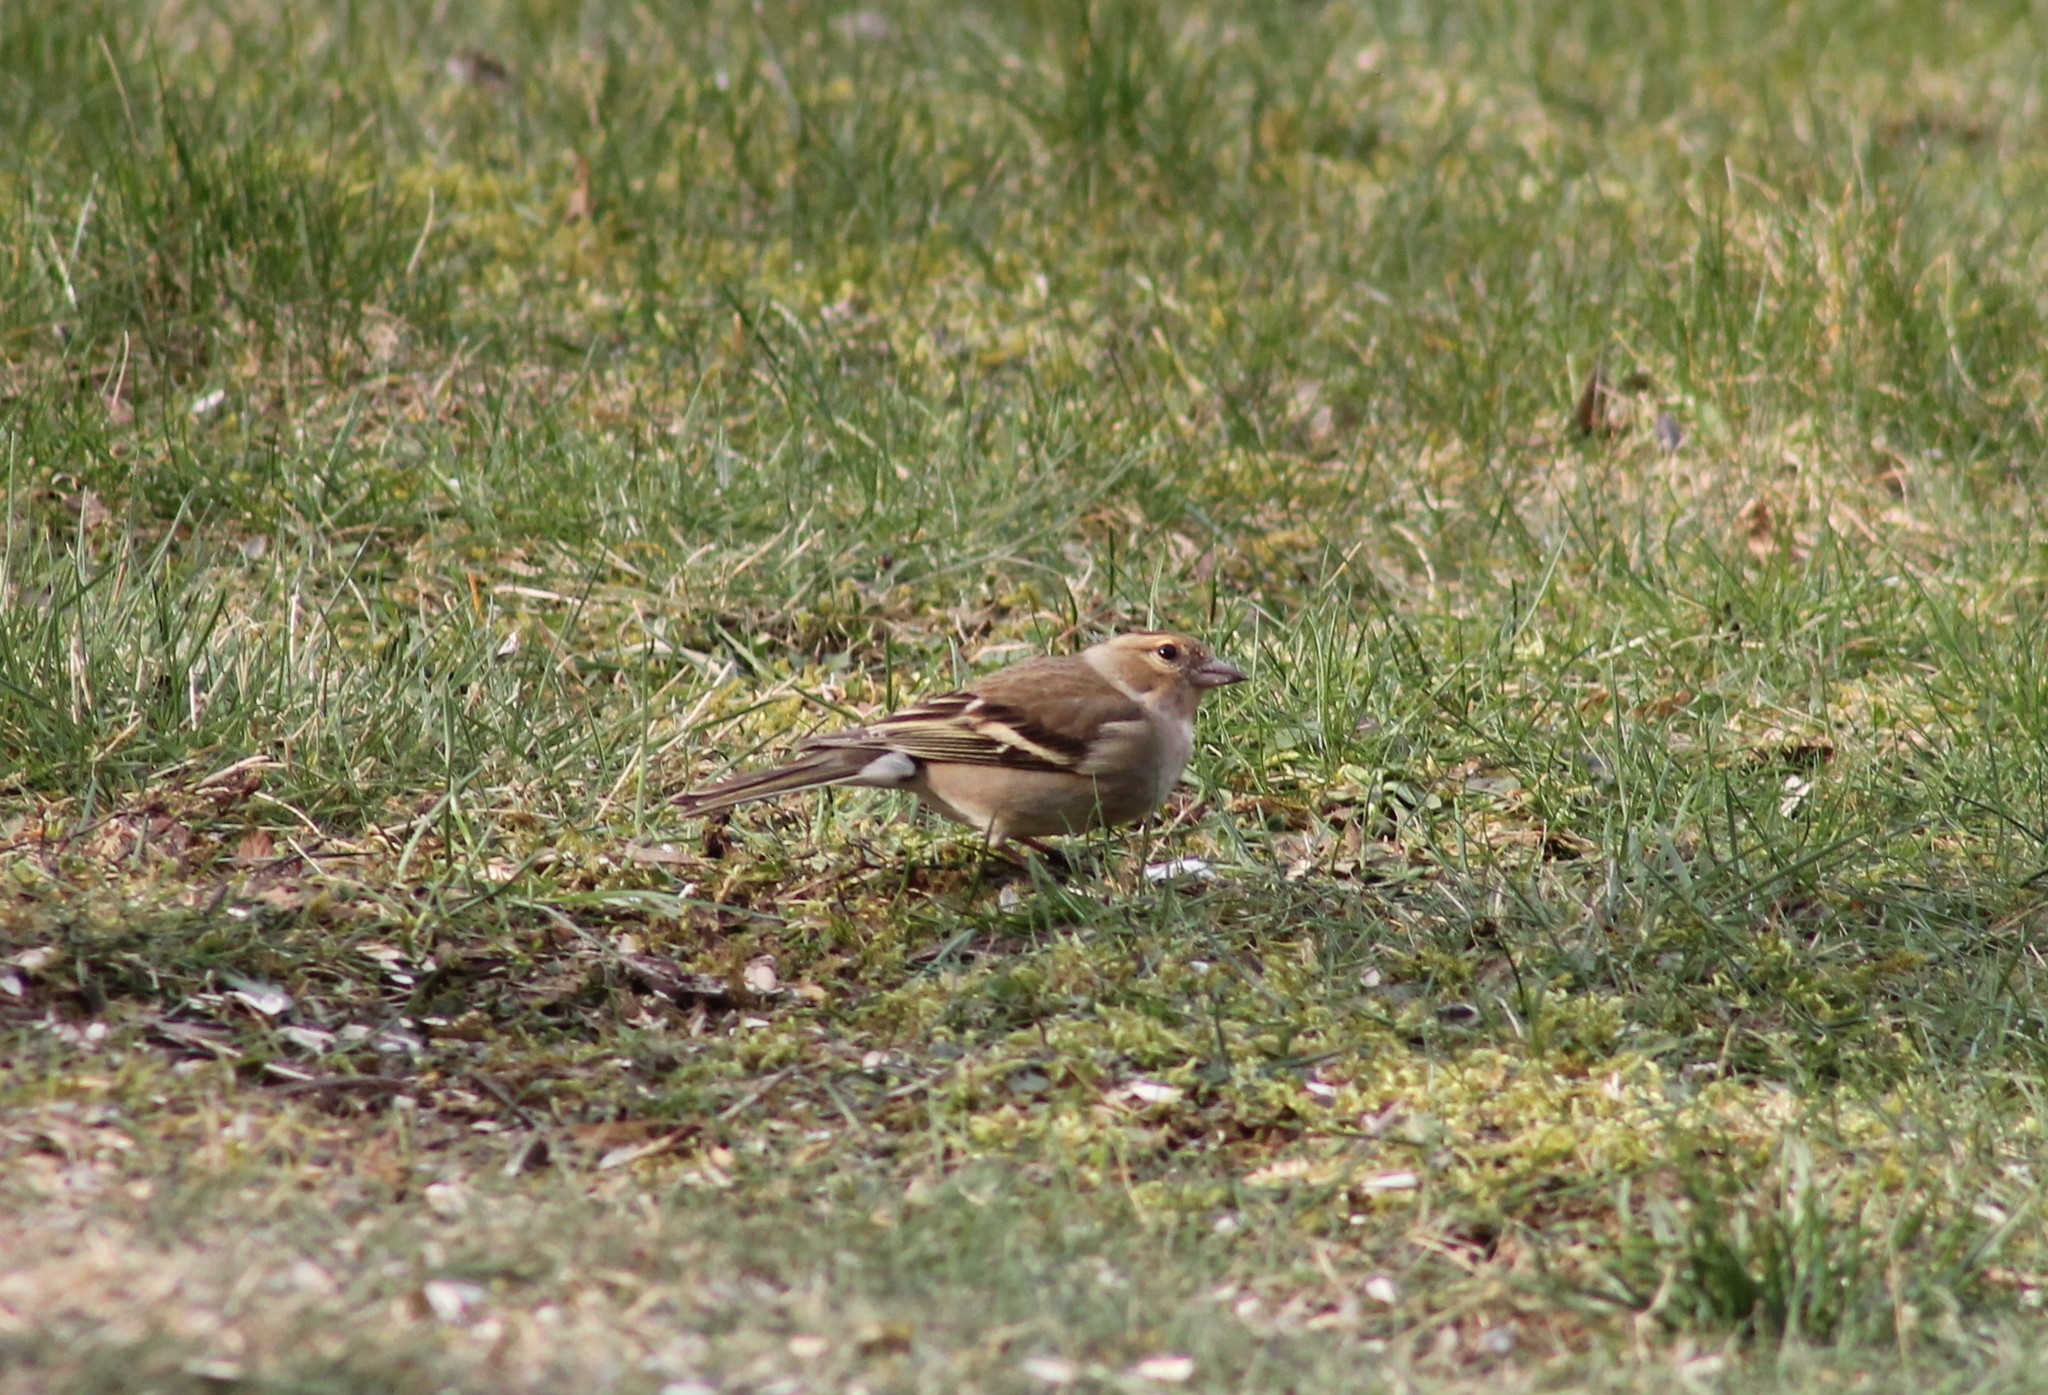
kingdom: Animalia
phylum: Chordata
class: Aves
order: Passeriformes
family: Fringillidae
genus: Fringilla
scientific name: Fringilla coelebs
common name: Common chaffinch
